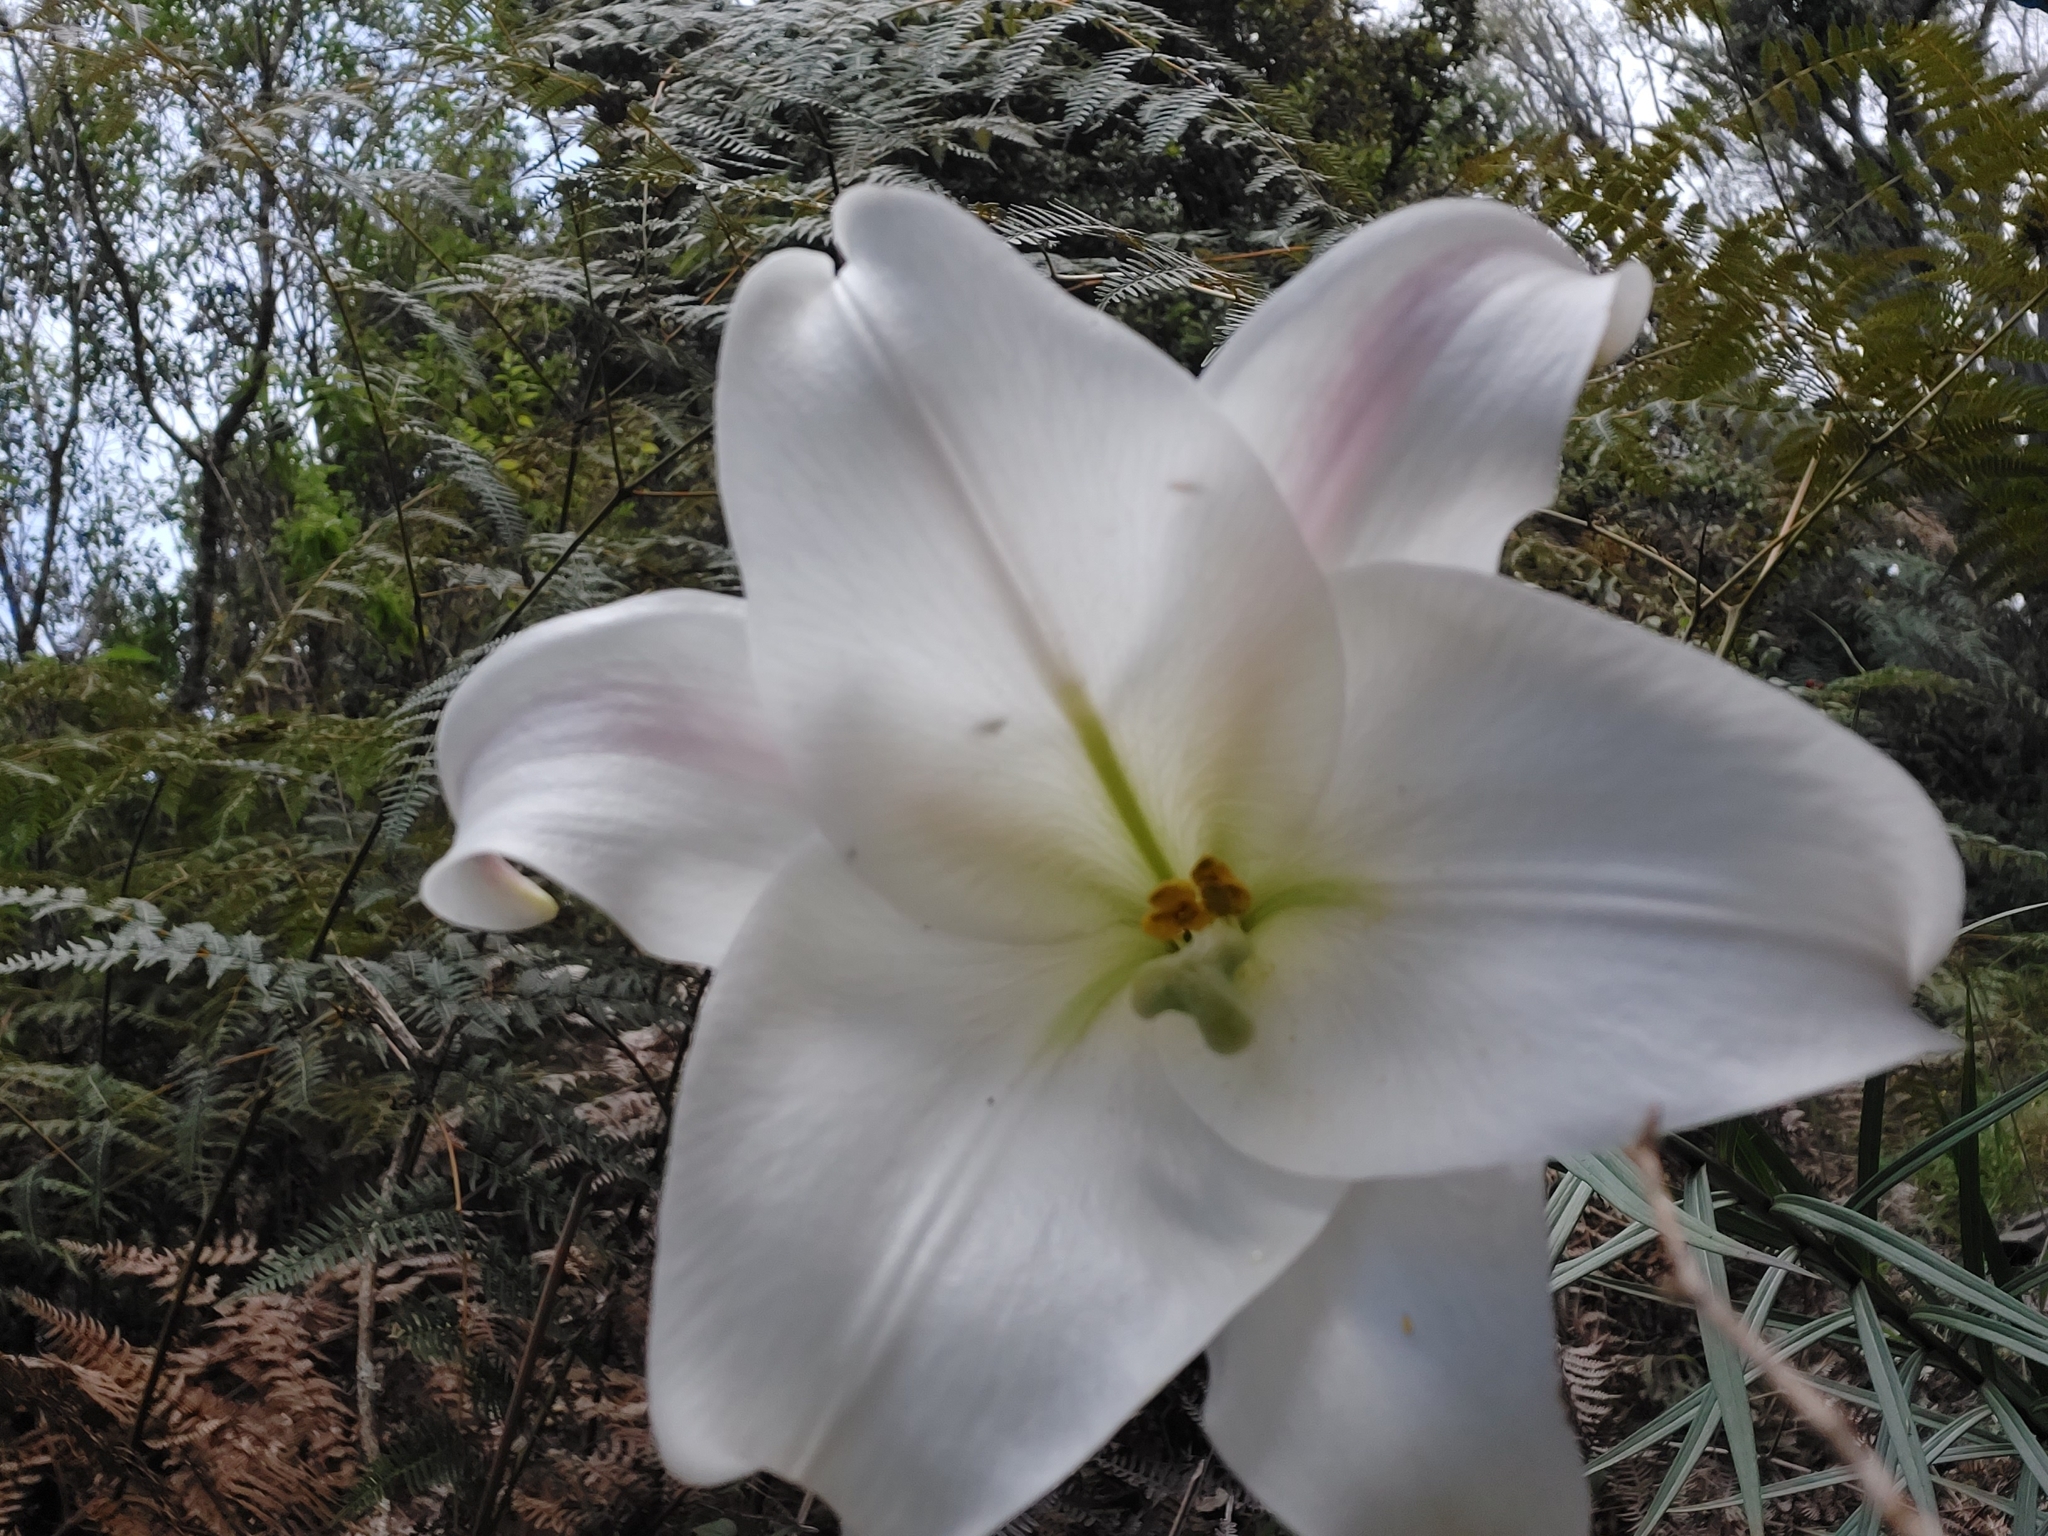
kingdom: Plantae
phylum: Tracheophyta
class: Liliopsida
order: Liliales
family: Liliaceae
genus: Lilium
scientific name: Lilium longiflorum
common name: Easter lily
